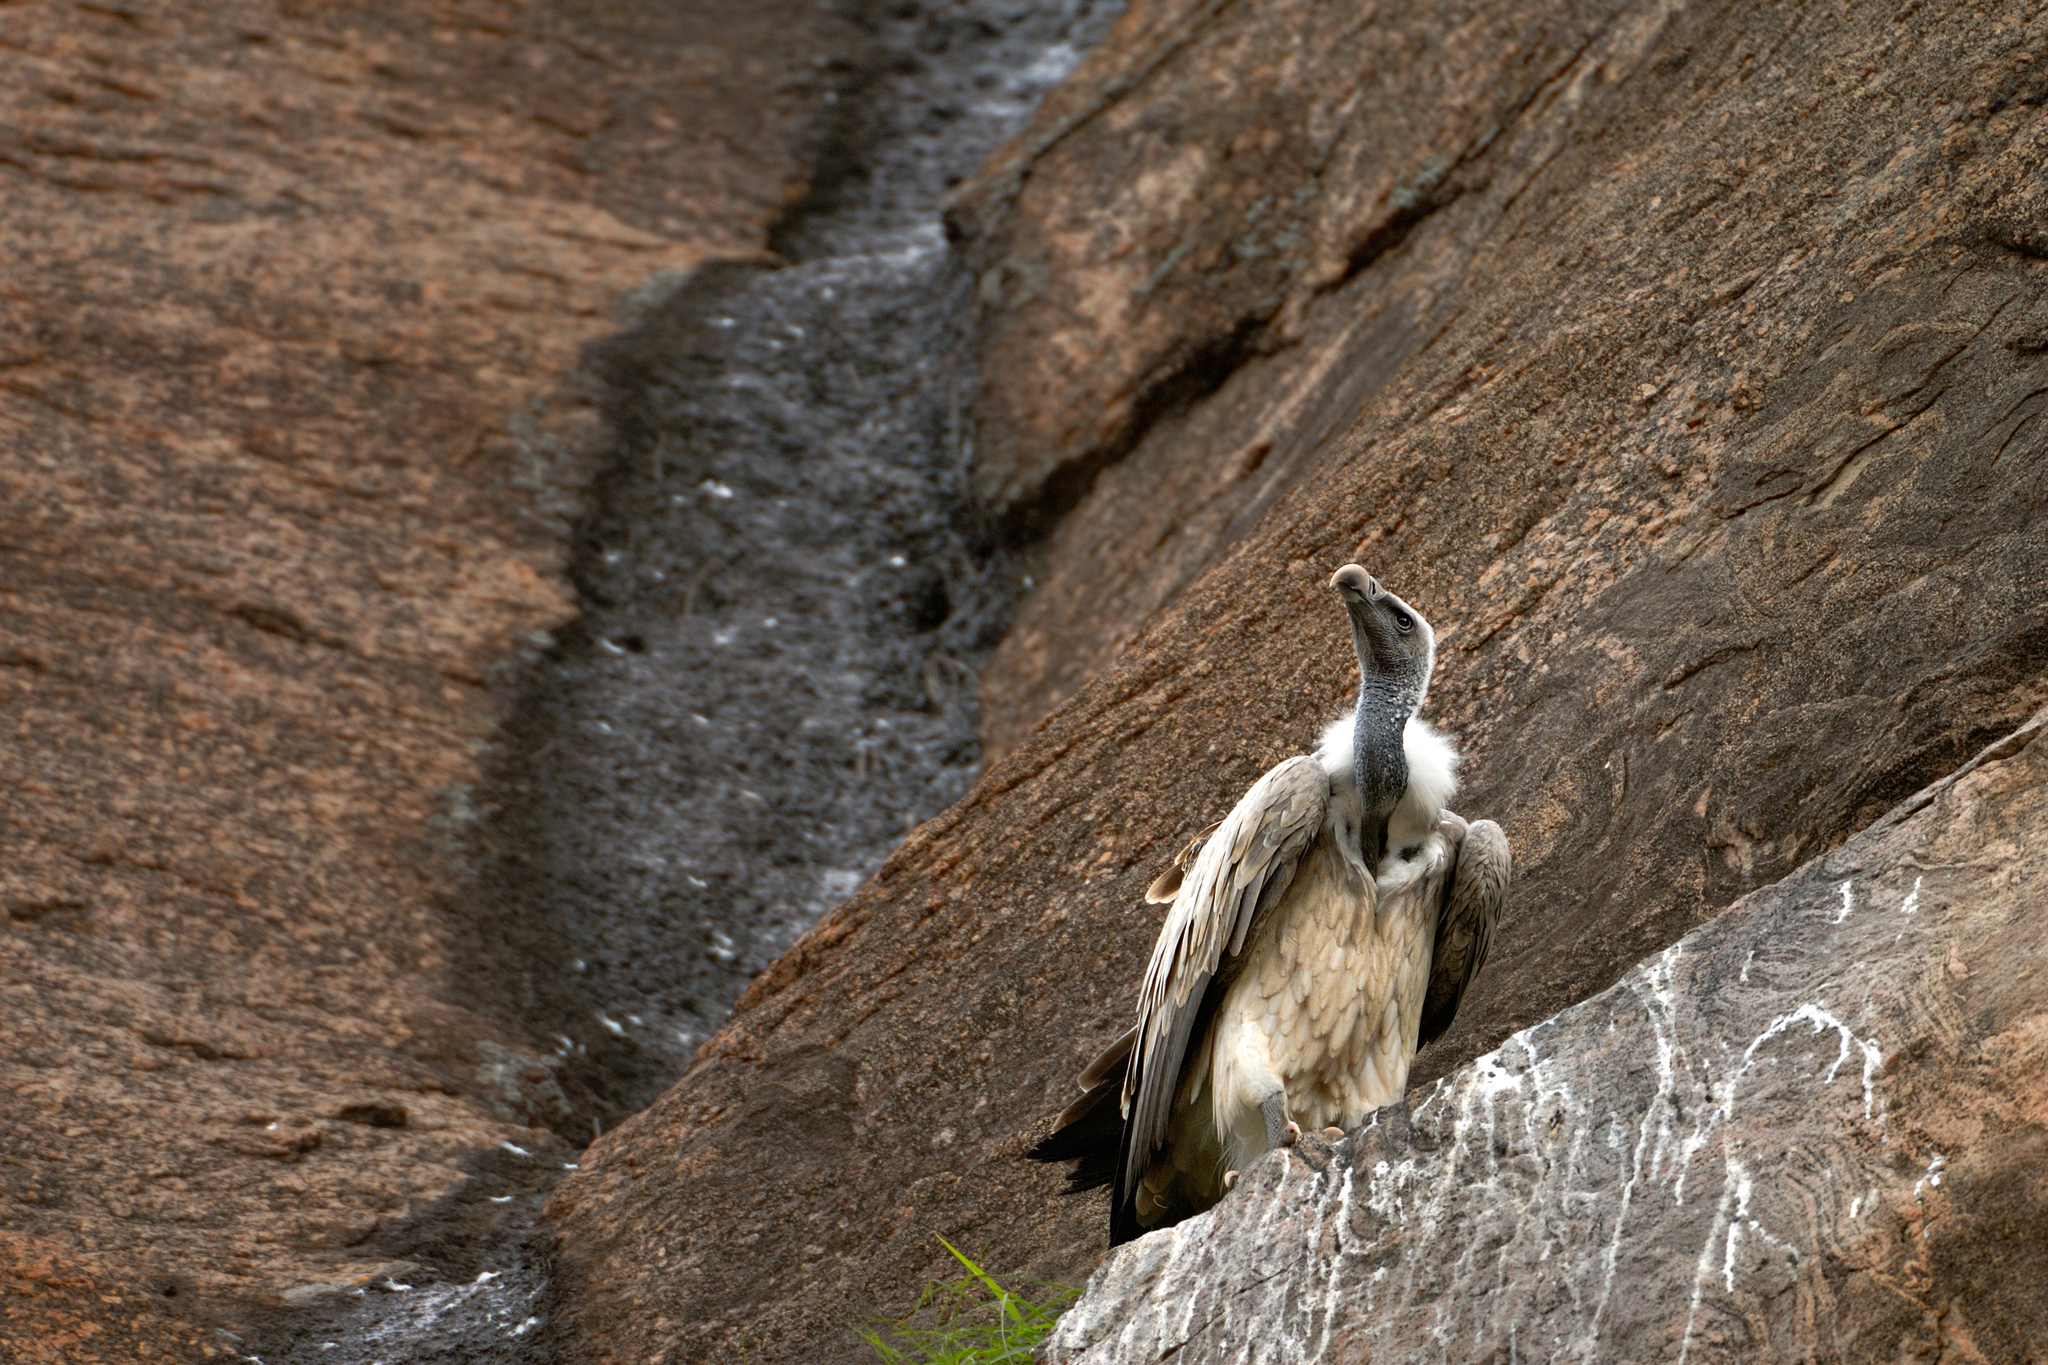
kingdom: Animalia
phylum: Chordata
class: Aves
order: Accipitriformes
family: Accipitridae
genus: Gyps
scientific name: Gyps indicus
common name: Indian vulture
